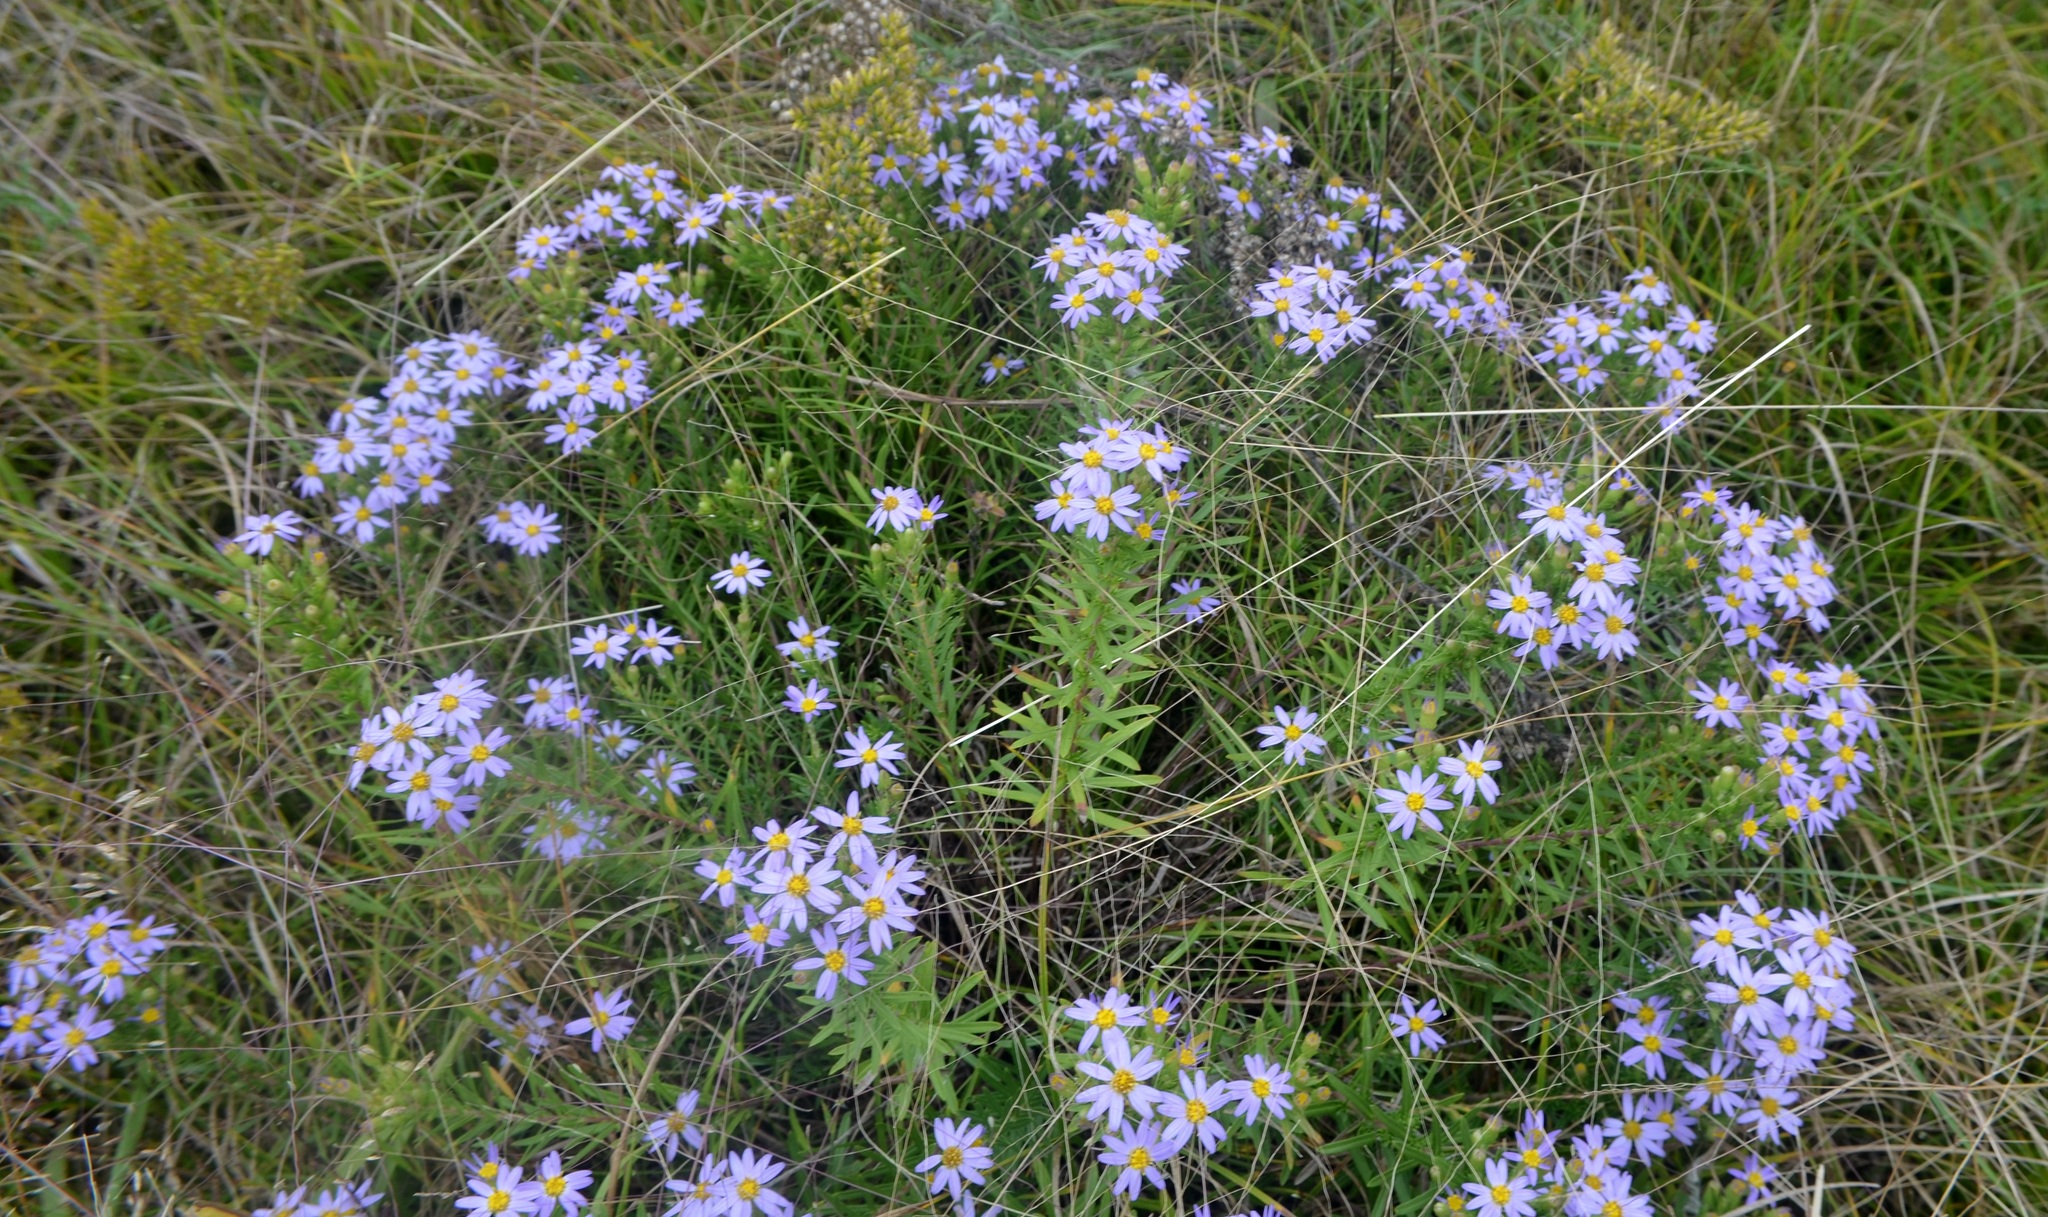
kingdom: Plantae
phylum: Tracheophyta
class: Magnoliopsida
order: Asterales
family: Asteraceae
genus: Ionactis
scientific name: Ionactis linariifolia
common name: Flax-leaf aster
